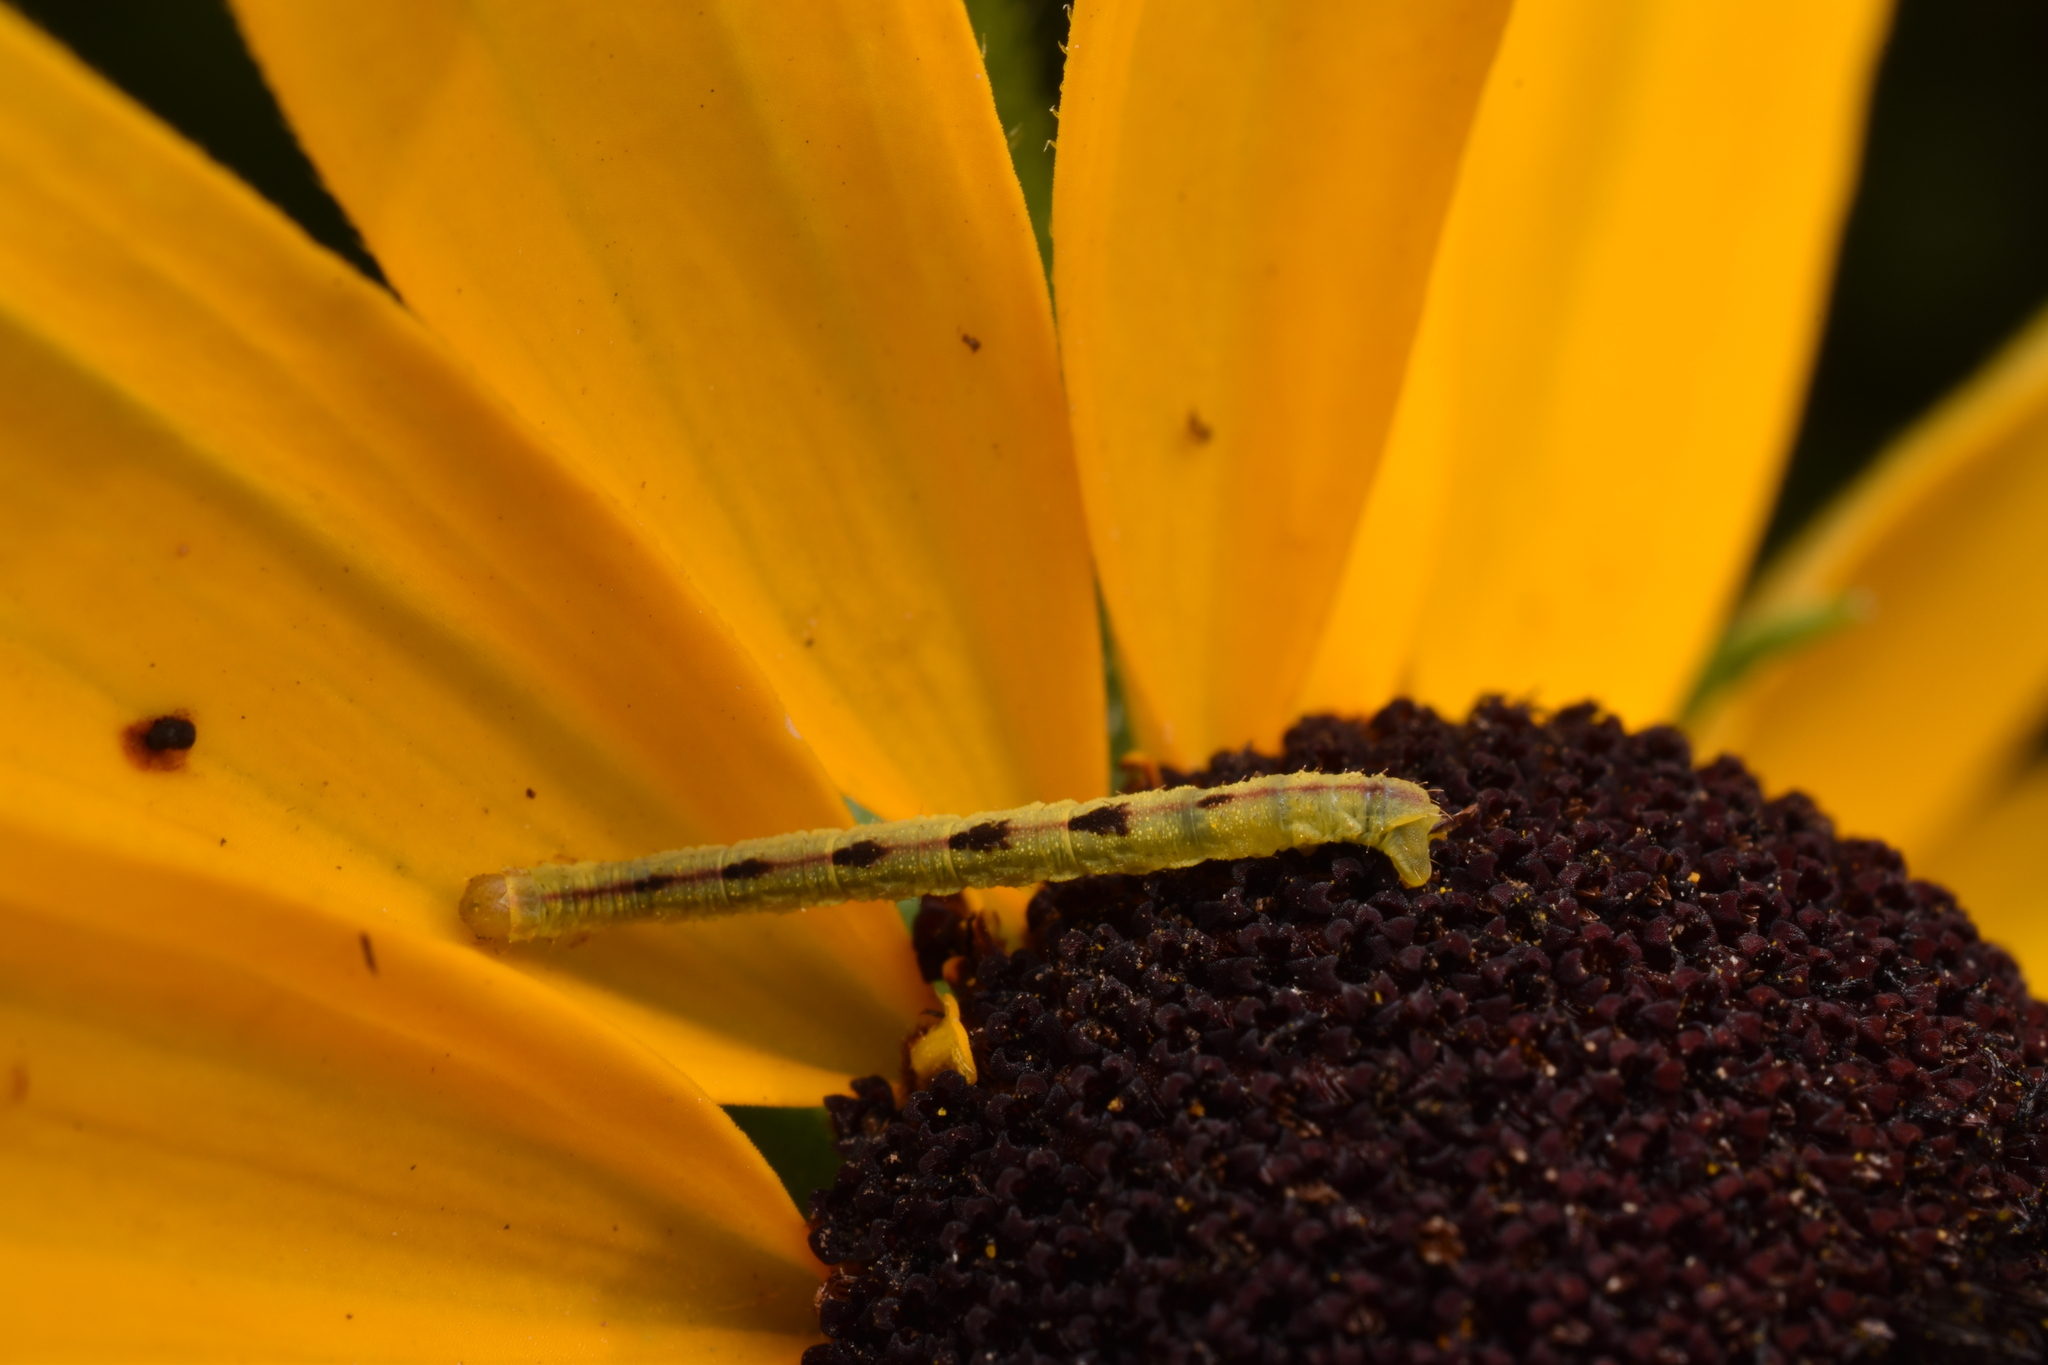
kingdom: Animalia
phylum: Arthropoda
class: Insecta
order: Lepidoptera
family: Geometridae
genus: Eupithecia
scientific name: Eupithecia miserulata
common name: Common eupithecia
